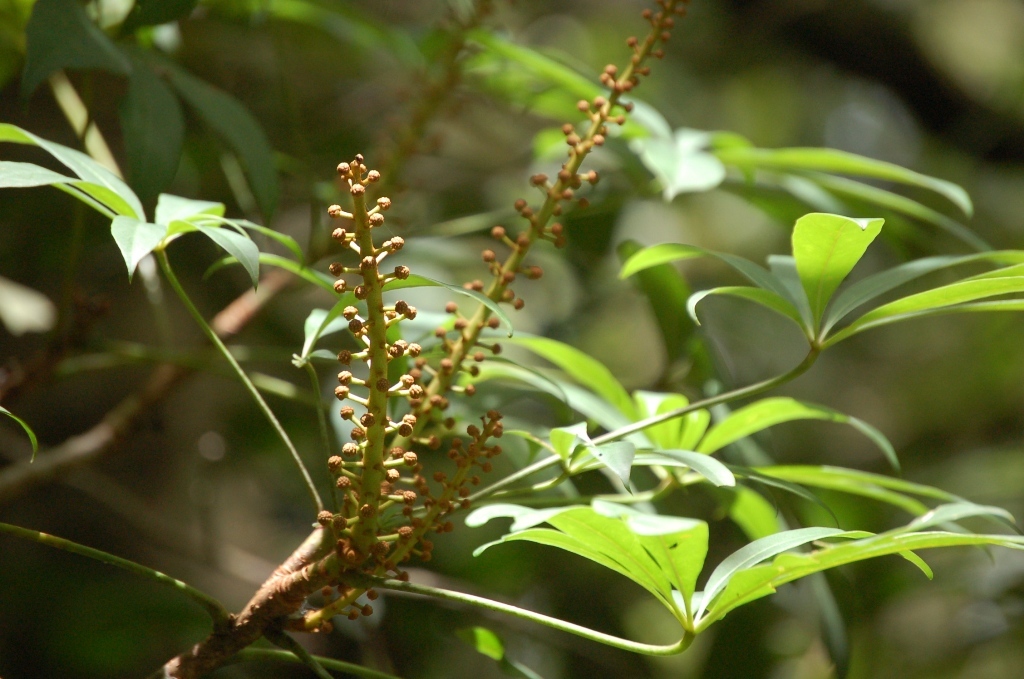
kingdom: Plantae
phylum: Tracheophyta
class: Magnoliopsida
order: Apiales
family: Araliaceae
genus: Oreopanax
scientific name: Oreopanax xalapensis
